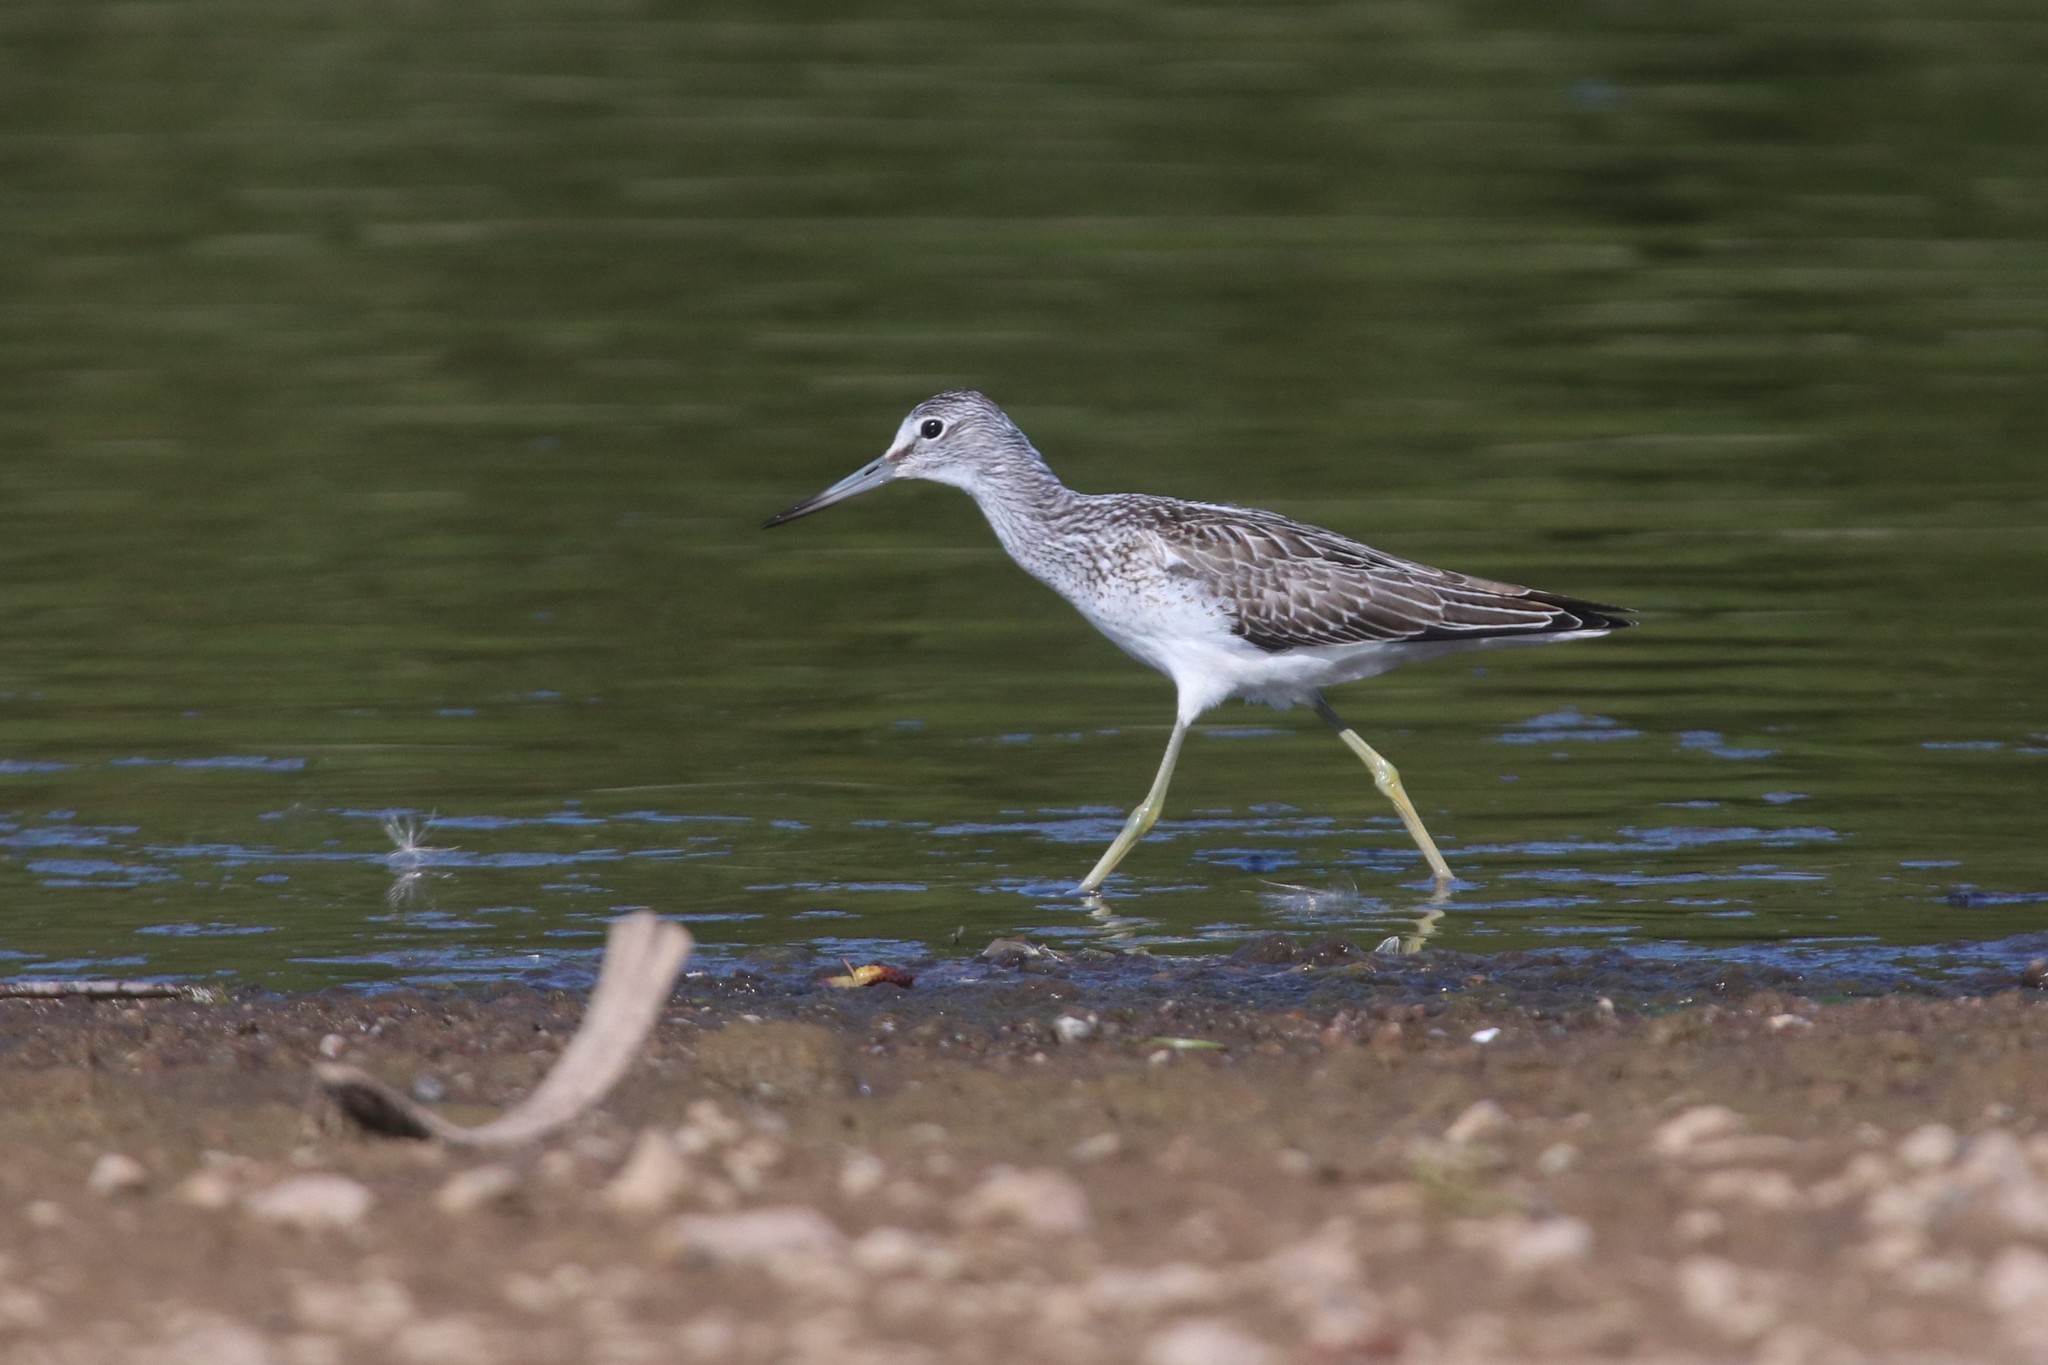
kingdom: Animalia
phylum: Chordata
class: Aves
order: Charadriiformes
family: Scolopacidae
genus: Tringa
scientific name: Tringa nebularia
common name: Common greenshank
